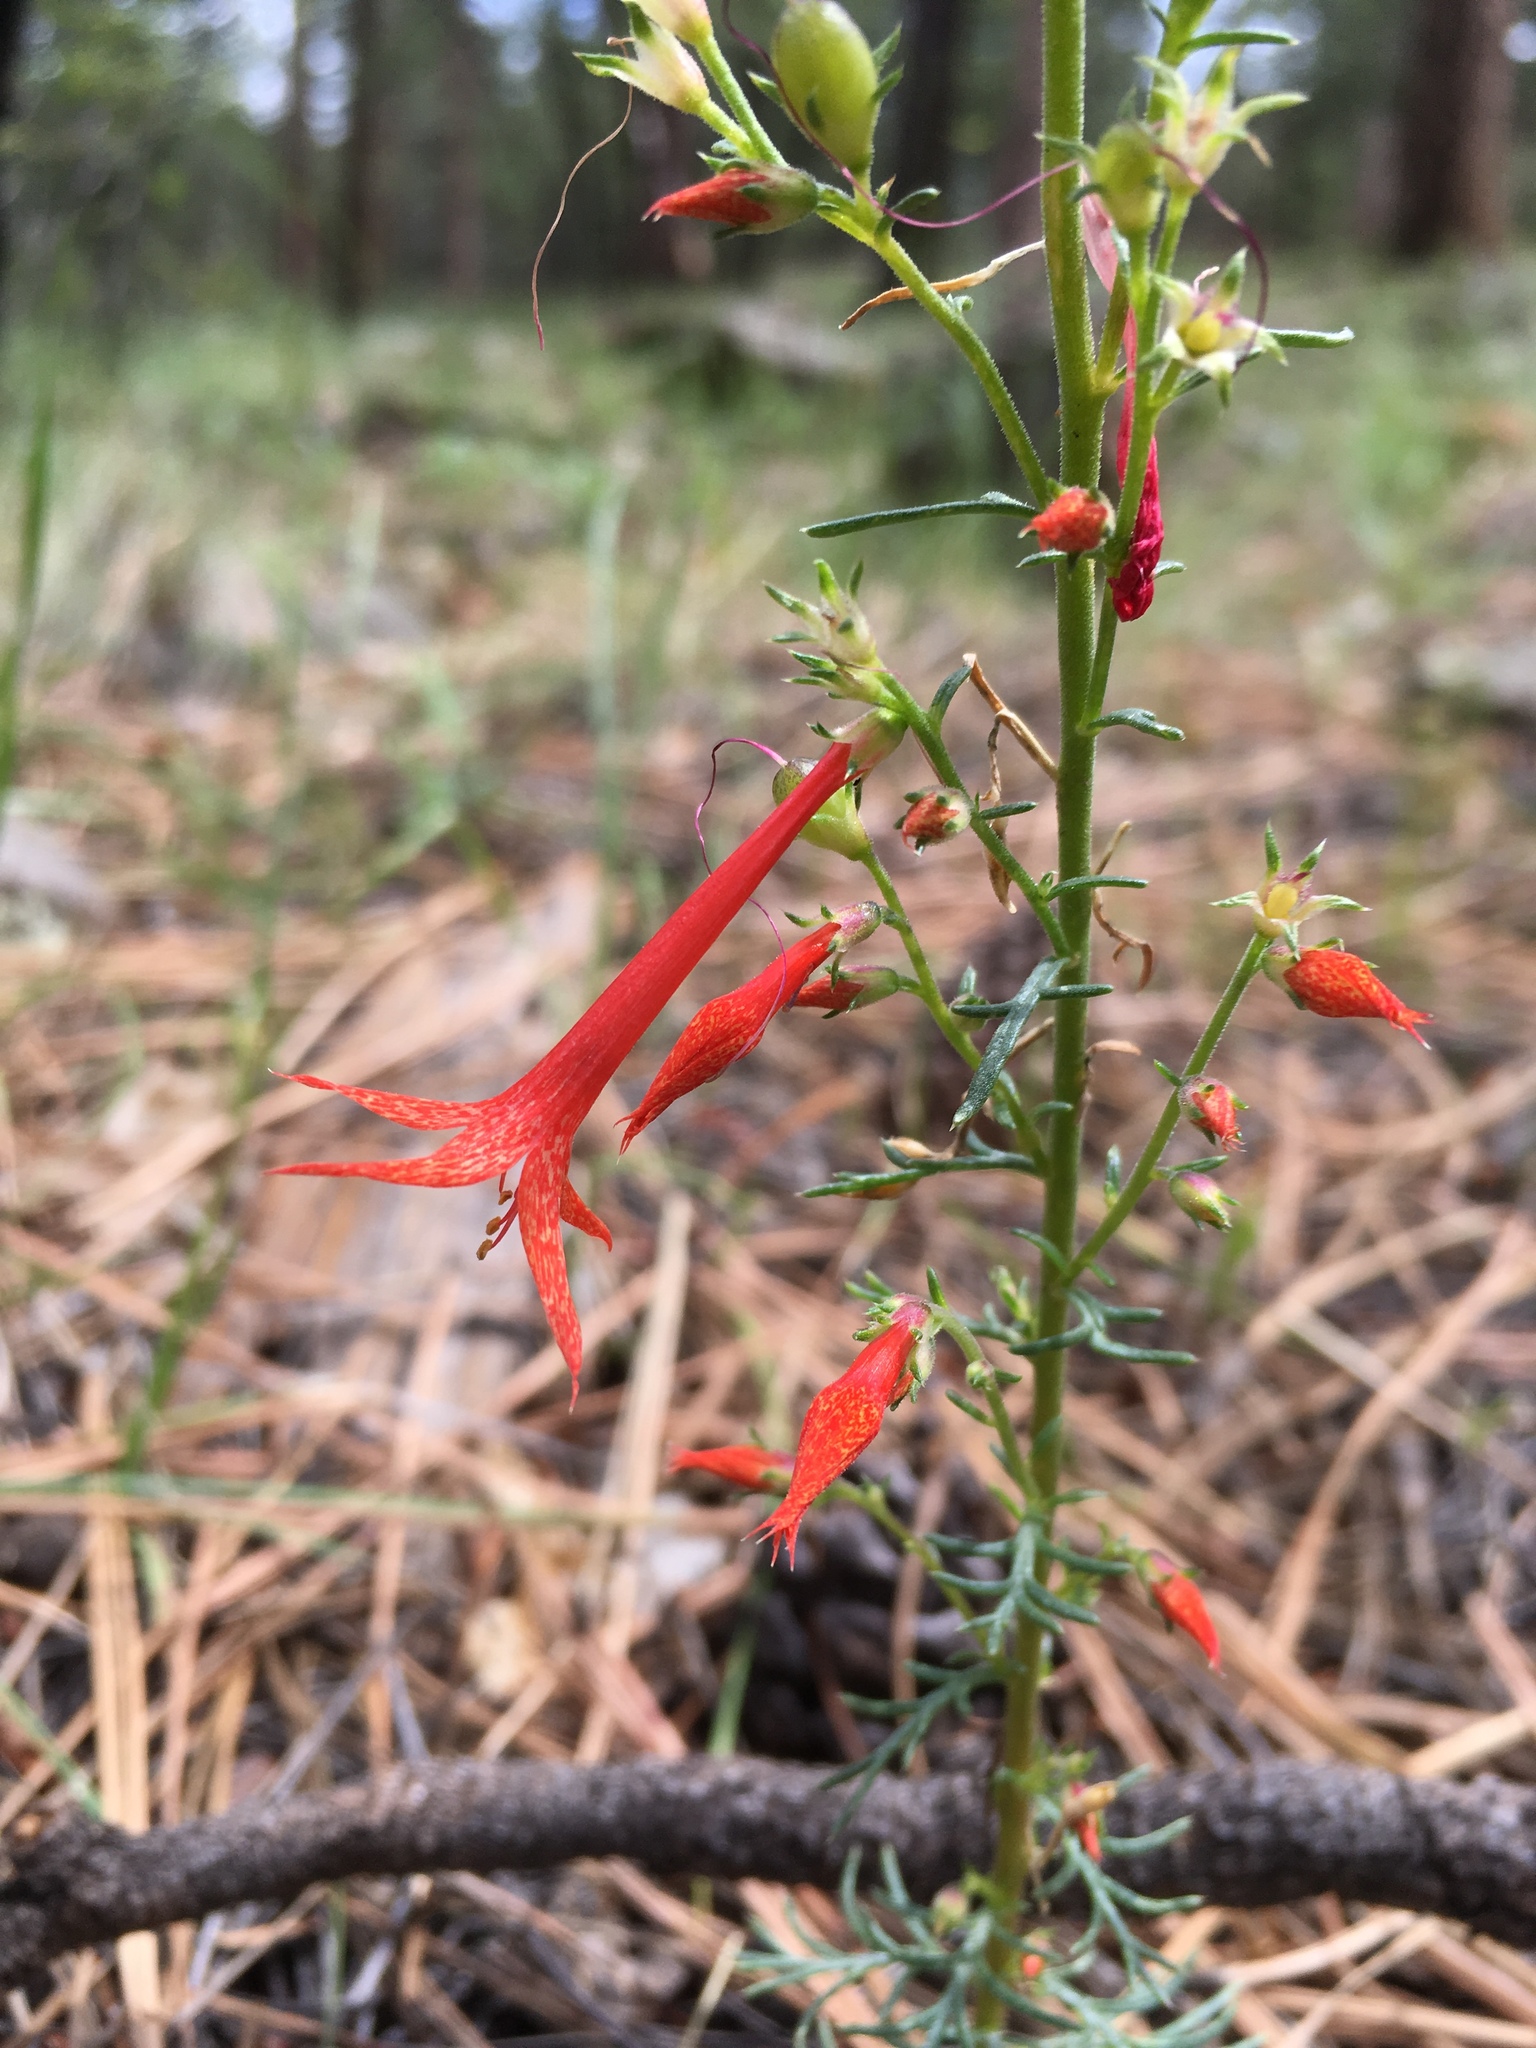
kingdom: Plantae
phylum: Tracheophyta
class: Magnoliopsida
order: Ericales
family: Polemoniaceae
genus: Ipomopsis
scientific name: Ipomopsis aggregata
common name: Scarlet gilia
